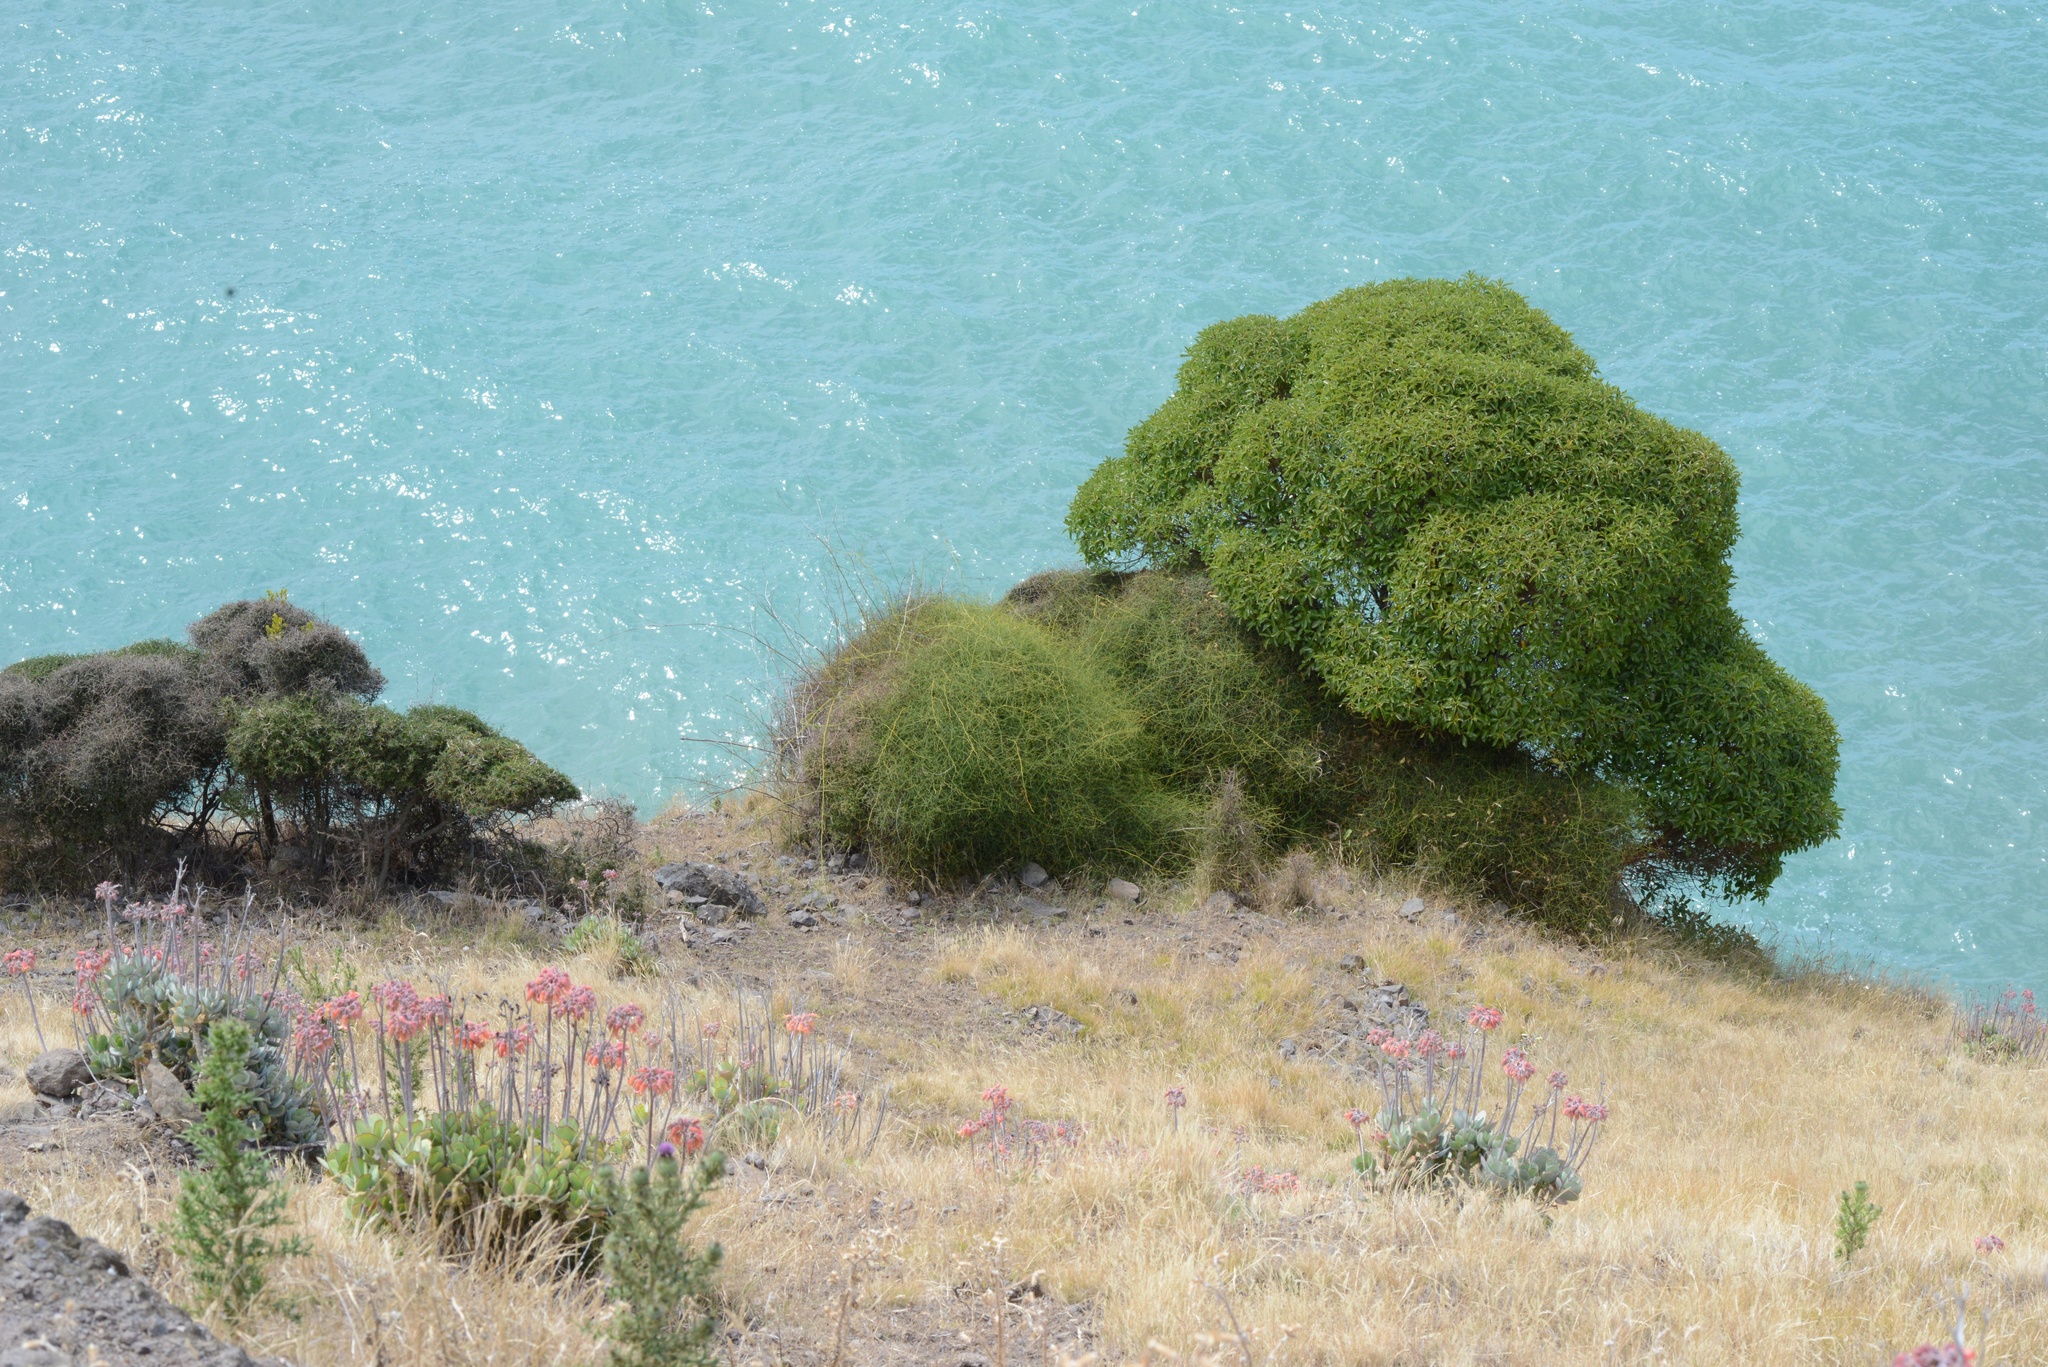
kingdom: Plantae
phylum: Tracheophyta
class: Magnoliopsida
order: Lamiales
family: Scrophulariaceae
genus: Myoporum
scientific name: Myoporum laetum
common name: Ngaio tree
